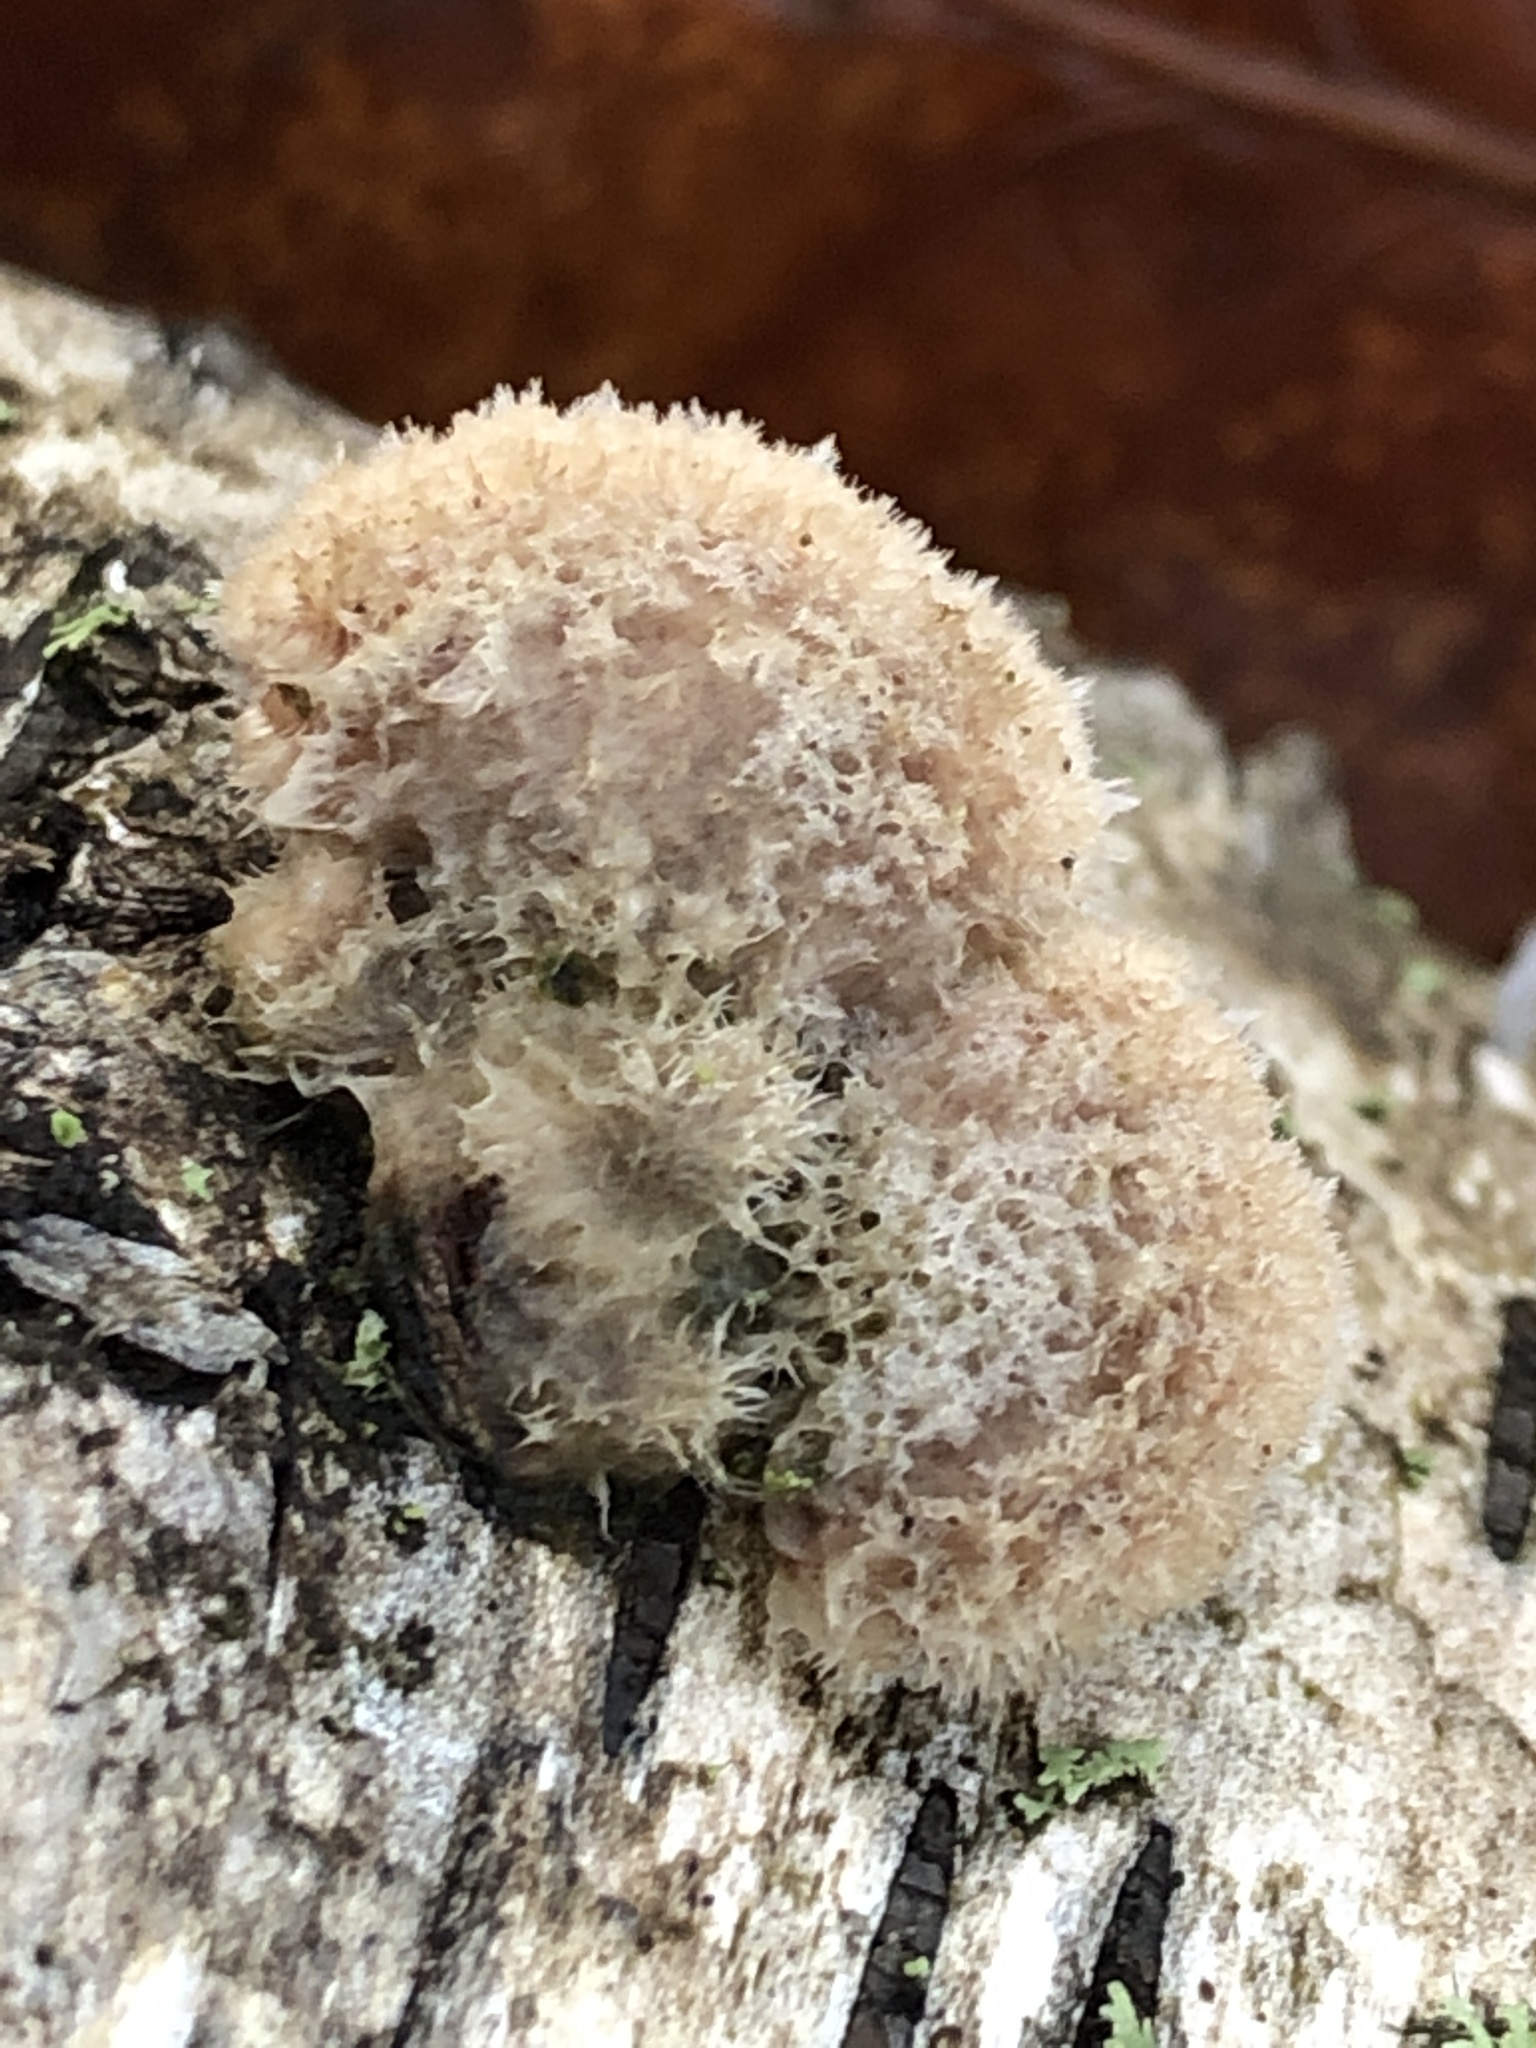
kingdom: Fungi
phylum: Basidiomycota
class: Agaricomycetes
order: Agaricales
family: Schizophyllaceae
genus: Schizophyllum
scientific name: Schizophyllum commune
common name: Common porecrust
